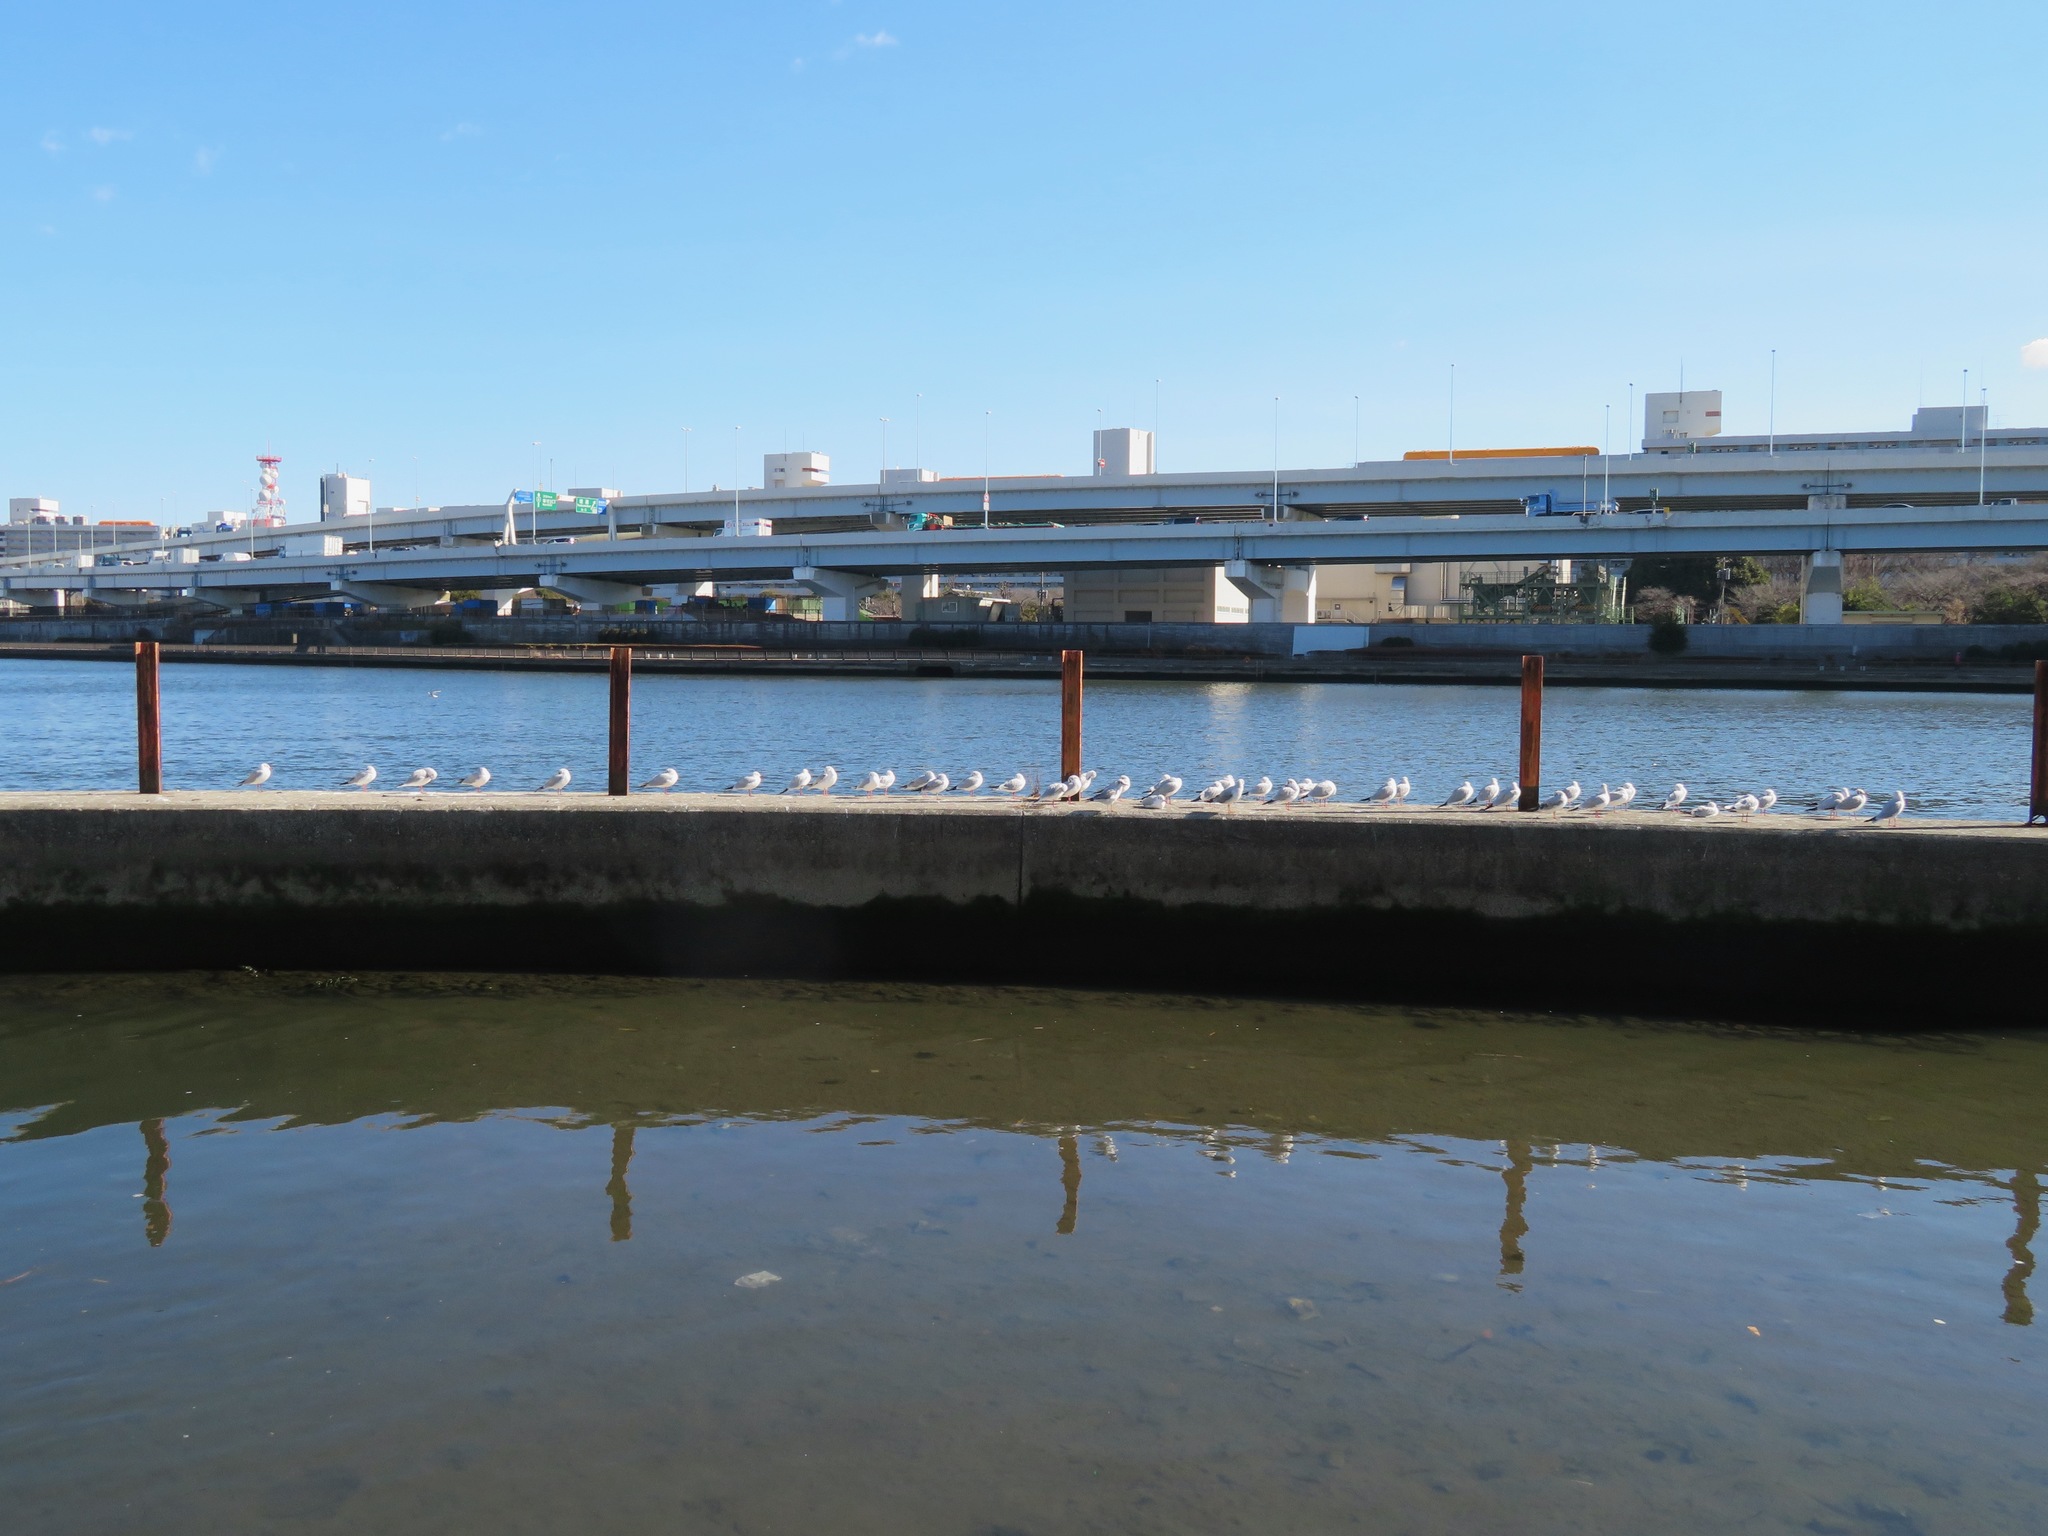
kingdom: Animalia
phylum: Chordata
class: Aves
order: Charadriiformes
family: Laridae
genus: Chroicocephalus
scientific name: Chroicocephalus ridibundus
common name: Black-headed gull
